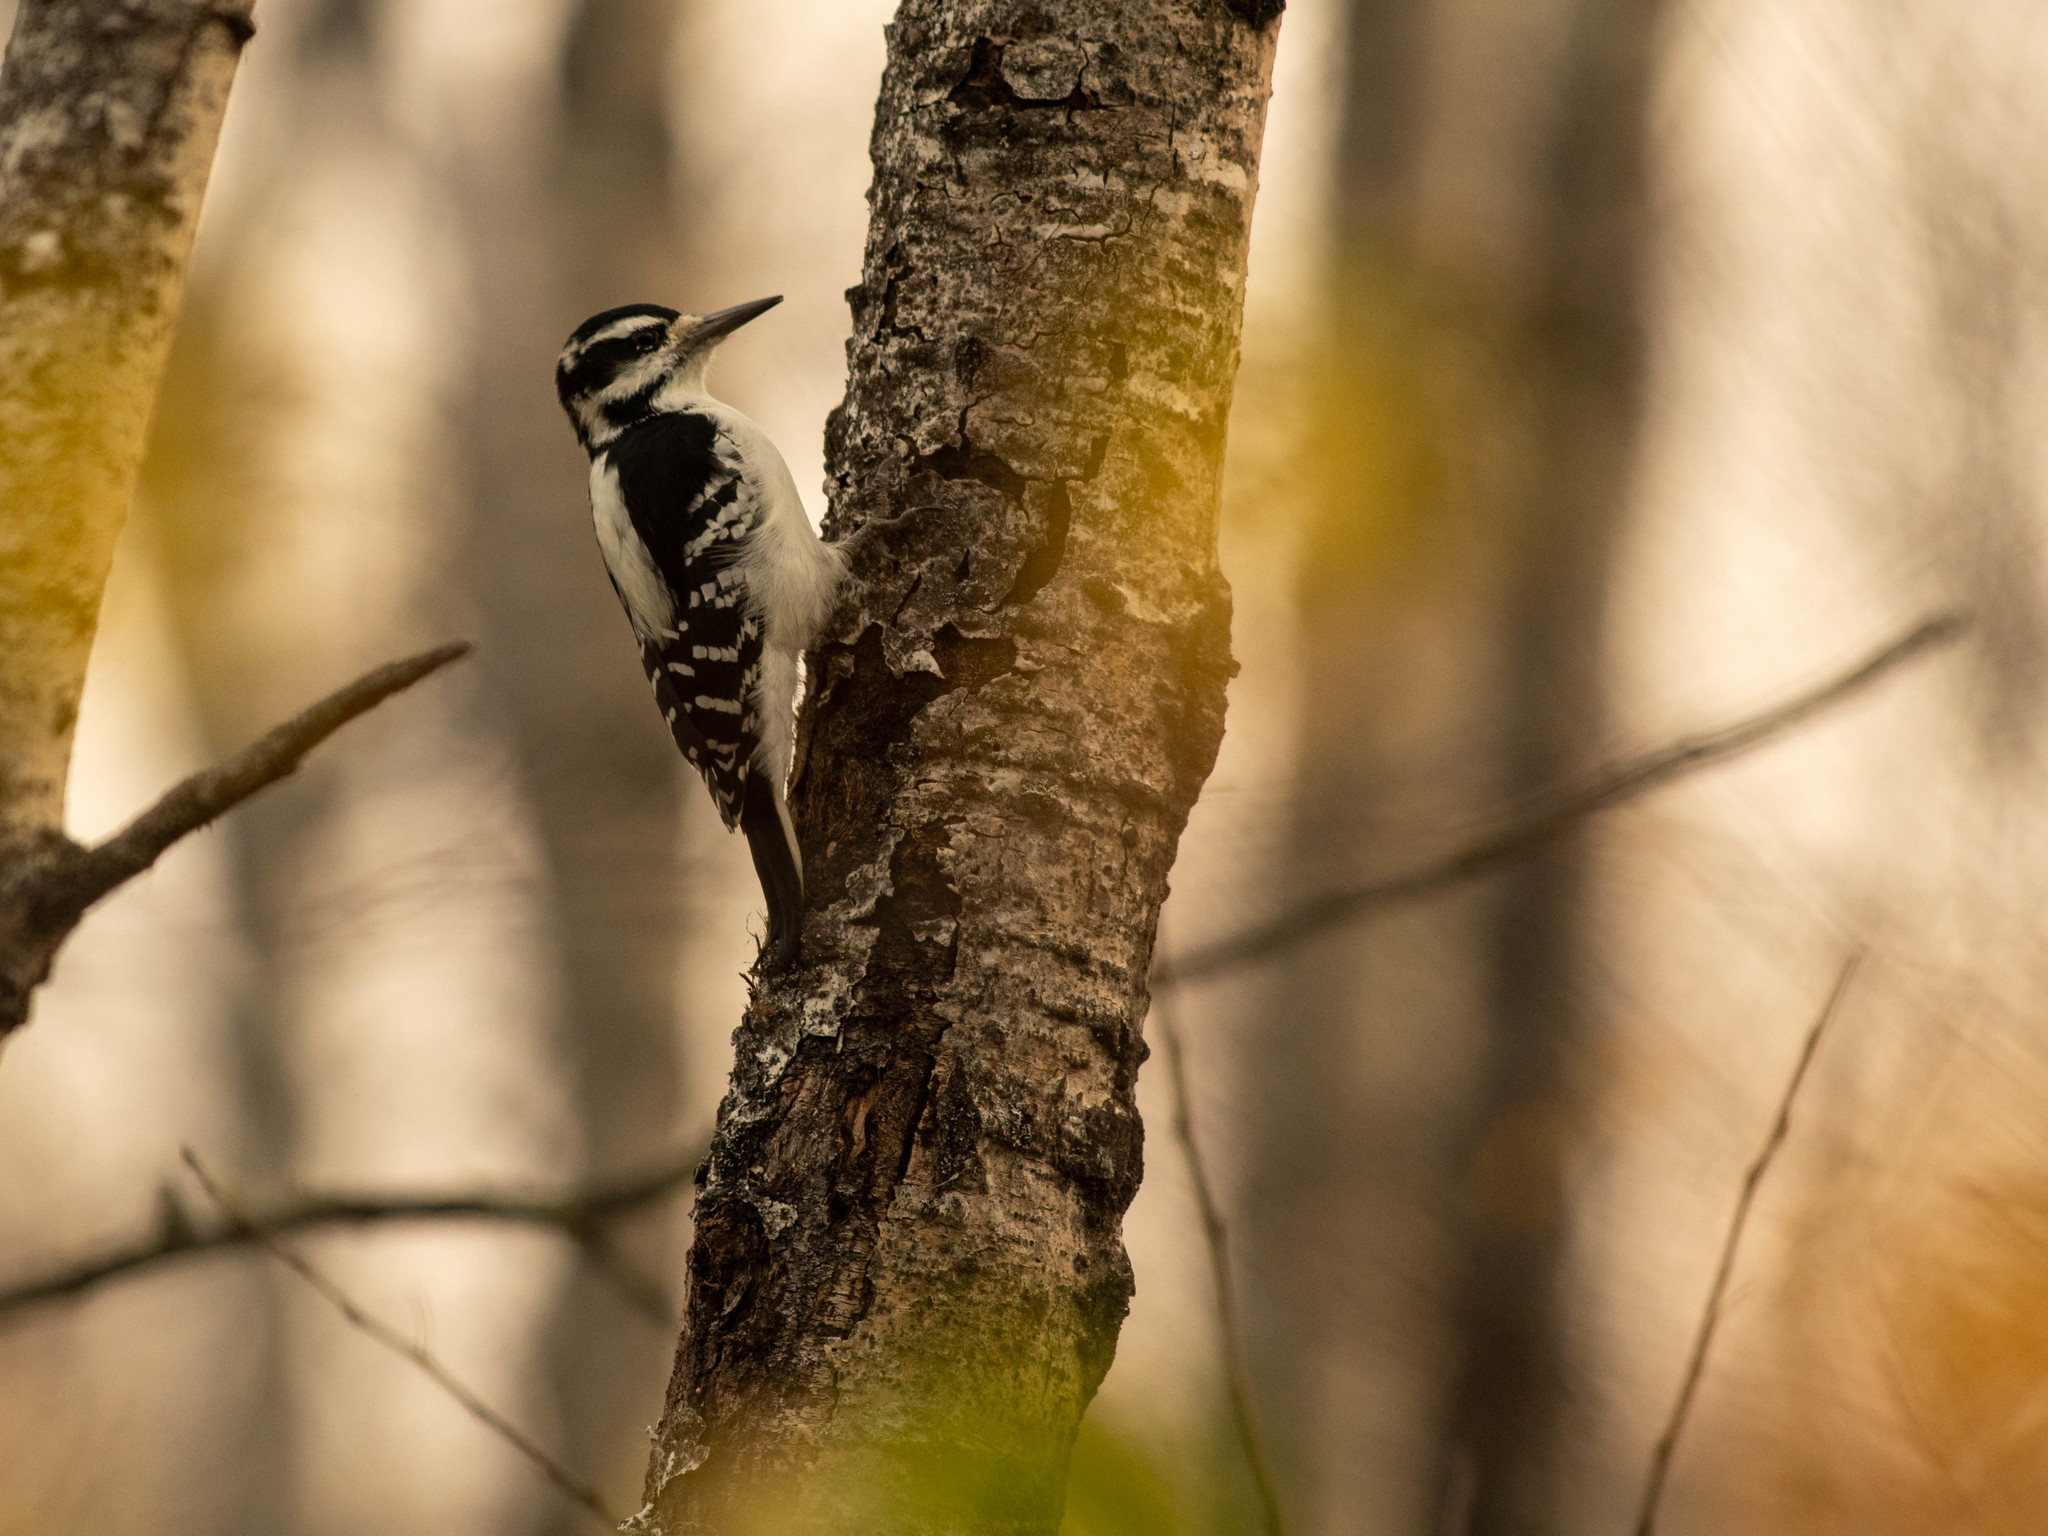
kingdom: Animalia
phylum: Chordata
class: Aves
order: Piciformes
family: Picidae
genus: Leuconotopicus
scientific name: Leuconotopicus villosus
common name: Hairy woodpecker
